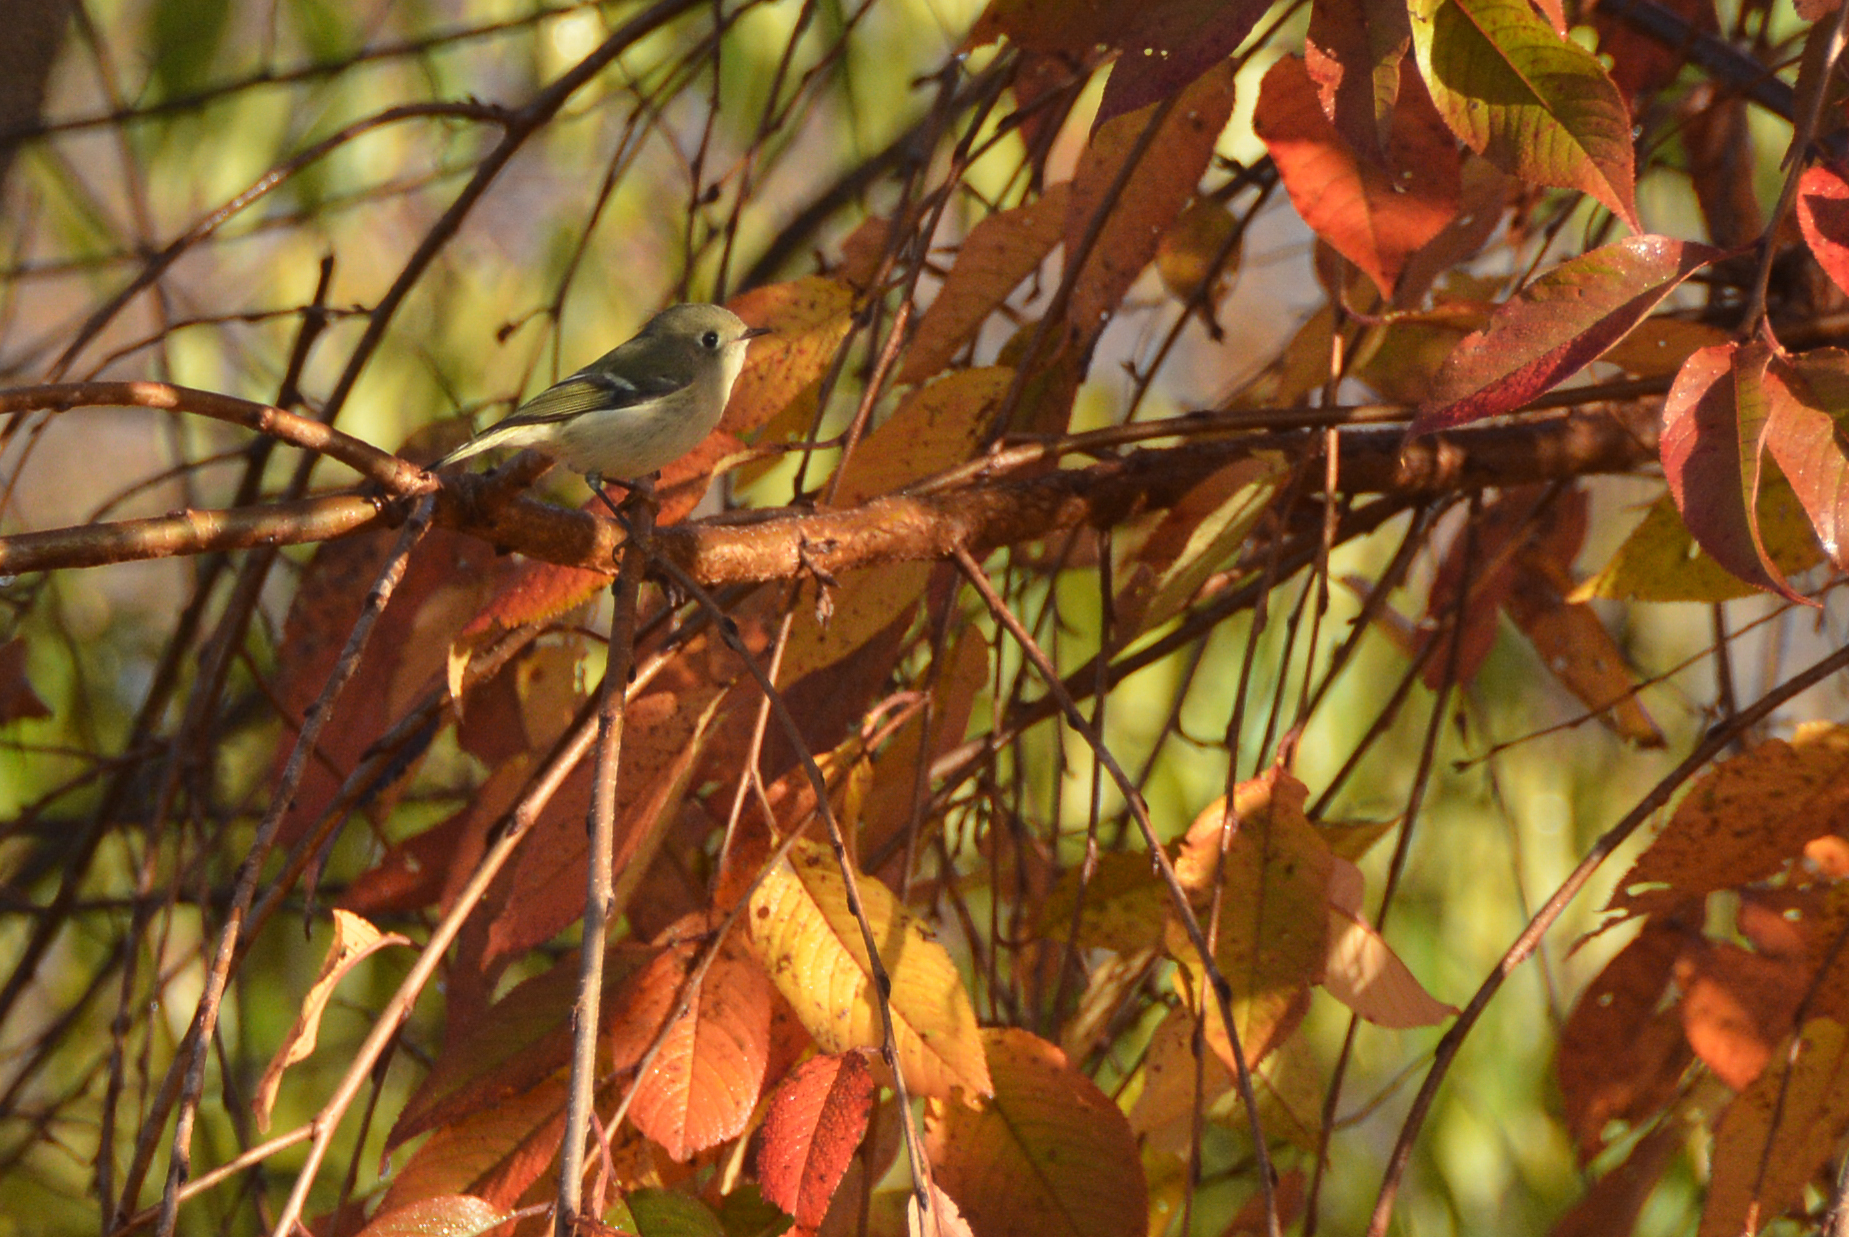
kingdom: Animalia
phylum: Chordata
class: Aves
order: Passeriformes
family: Regulidae
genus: Regulus
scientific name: Regulus calendula
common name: Ruby-crowned kinglet
